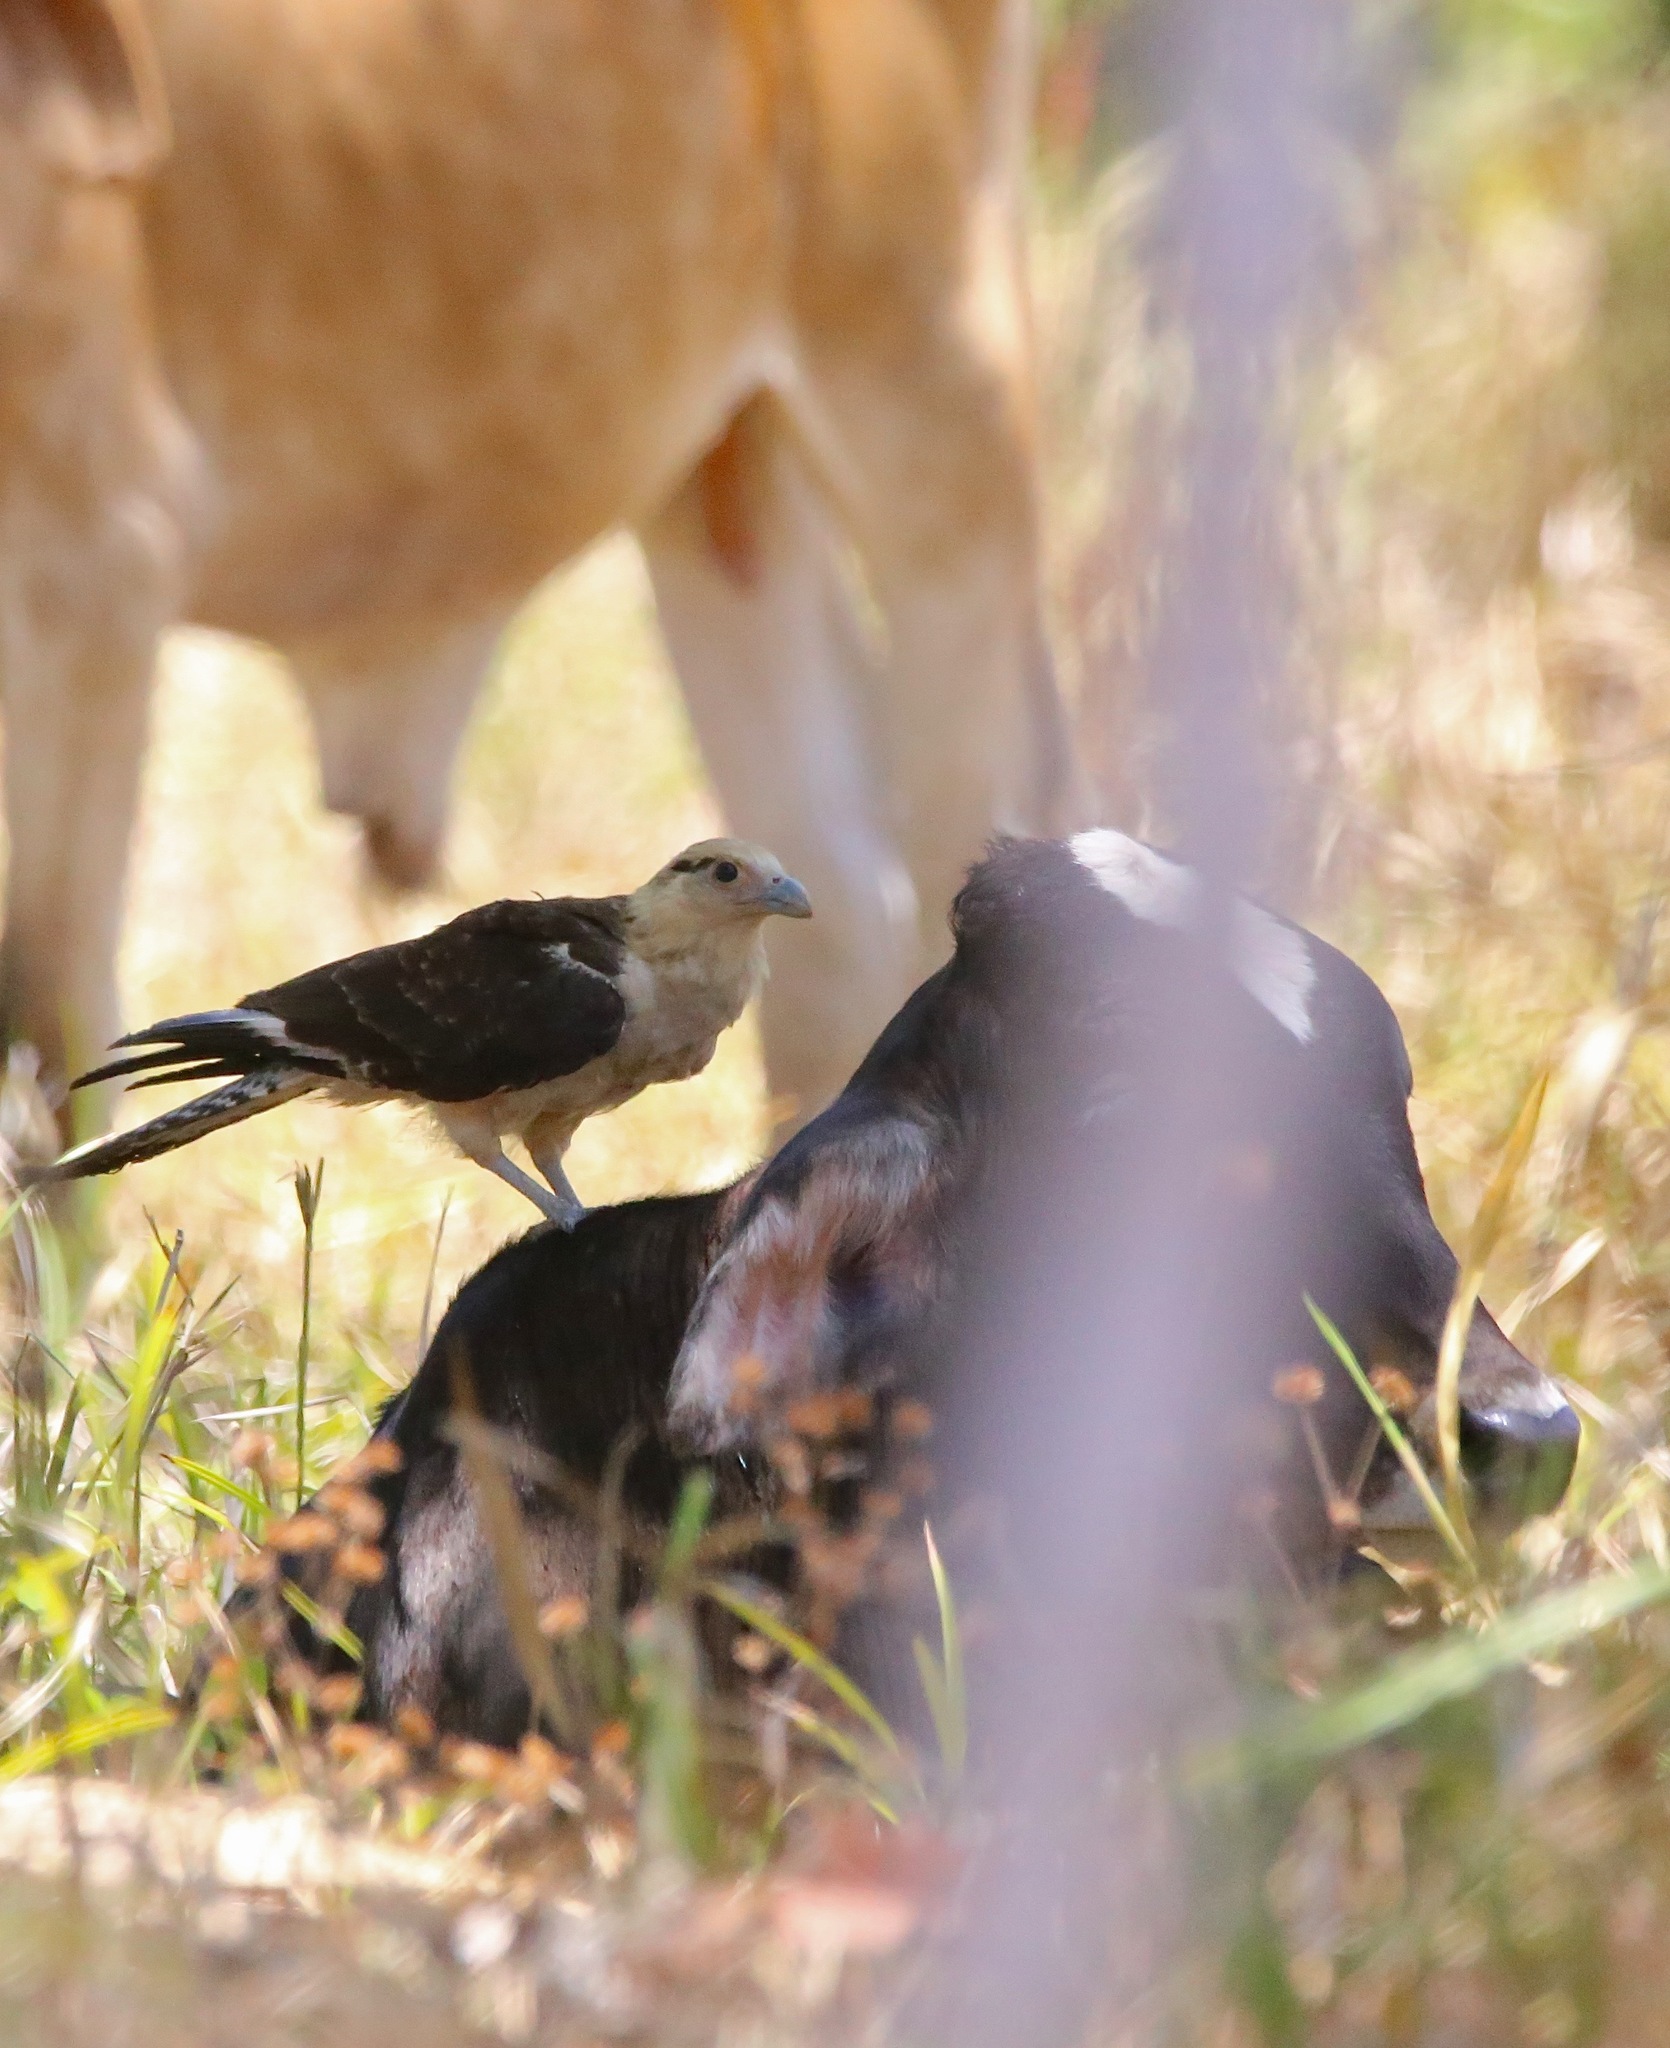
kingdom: Animalia
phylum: Chordata
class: Aves
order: Falconiformes
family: Falconidae
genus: Daptrius
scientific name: Daptrius
